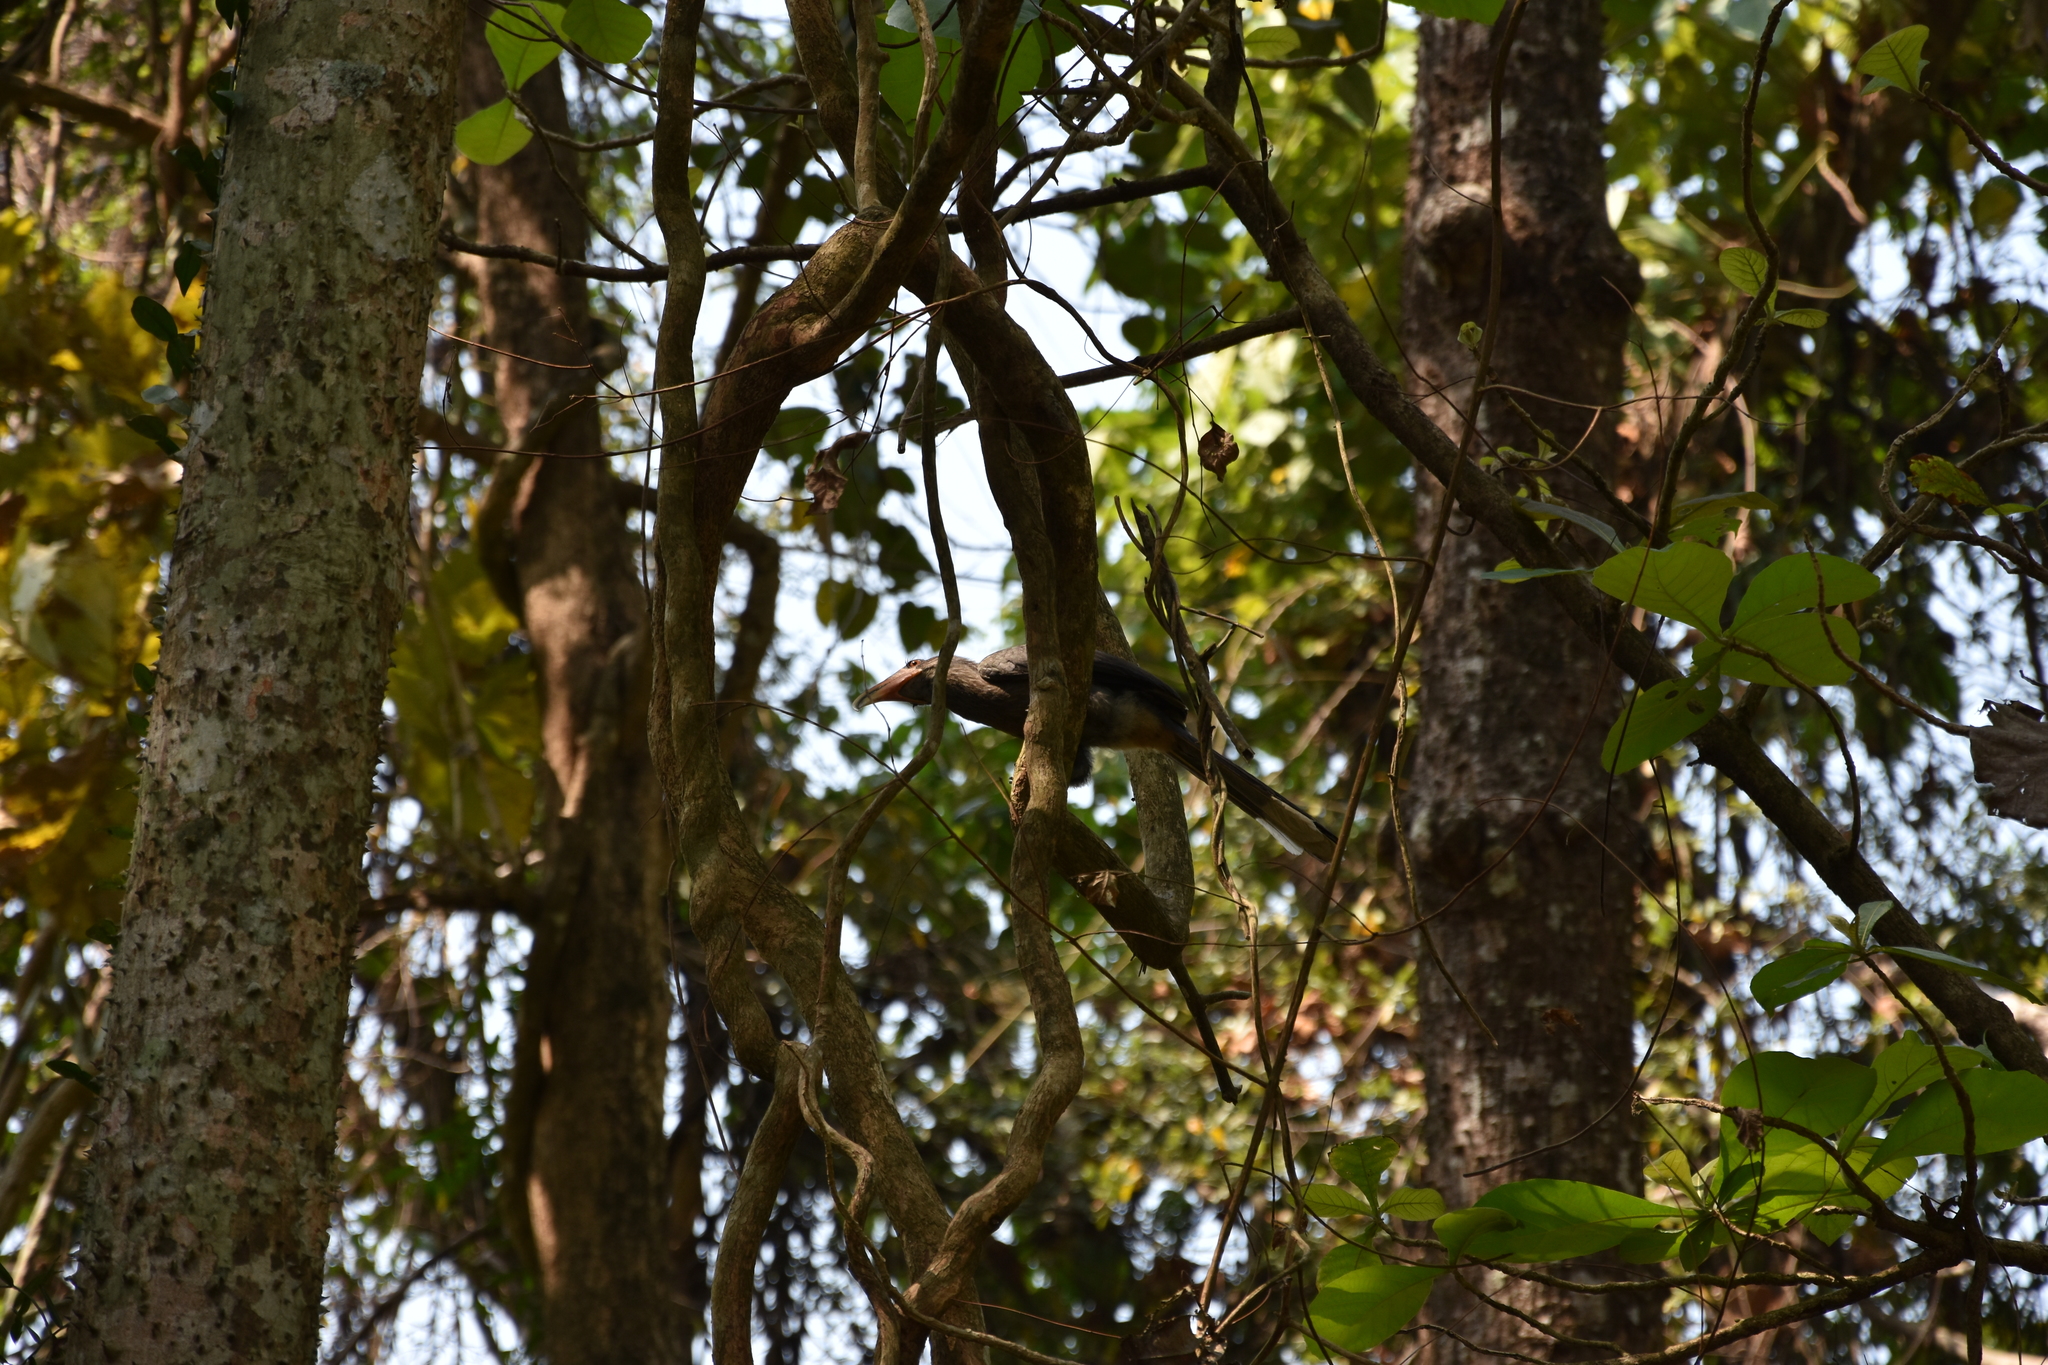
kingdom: Animalia
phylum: Chordata
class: Aves
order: Bucerotiformes
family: Bucerotidae
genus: Ocyceros
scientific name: Ocyceros griseus
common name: Malabar grey hornbill
